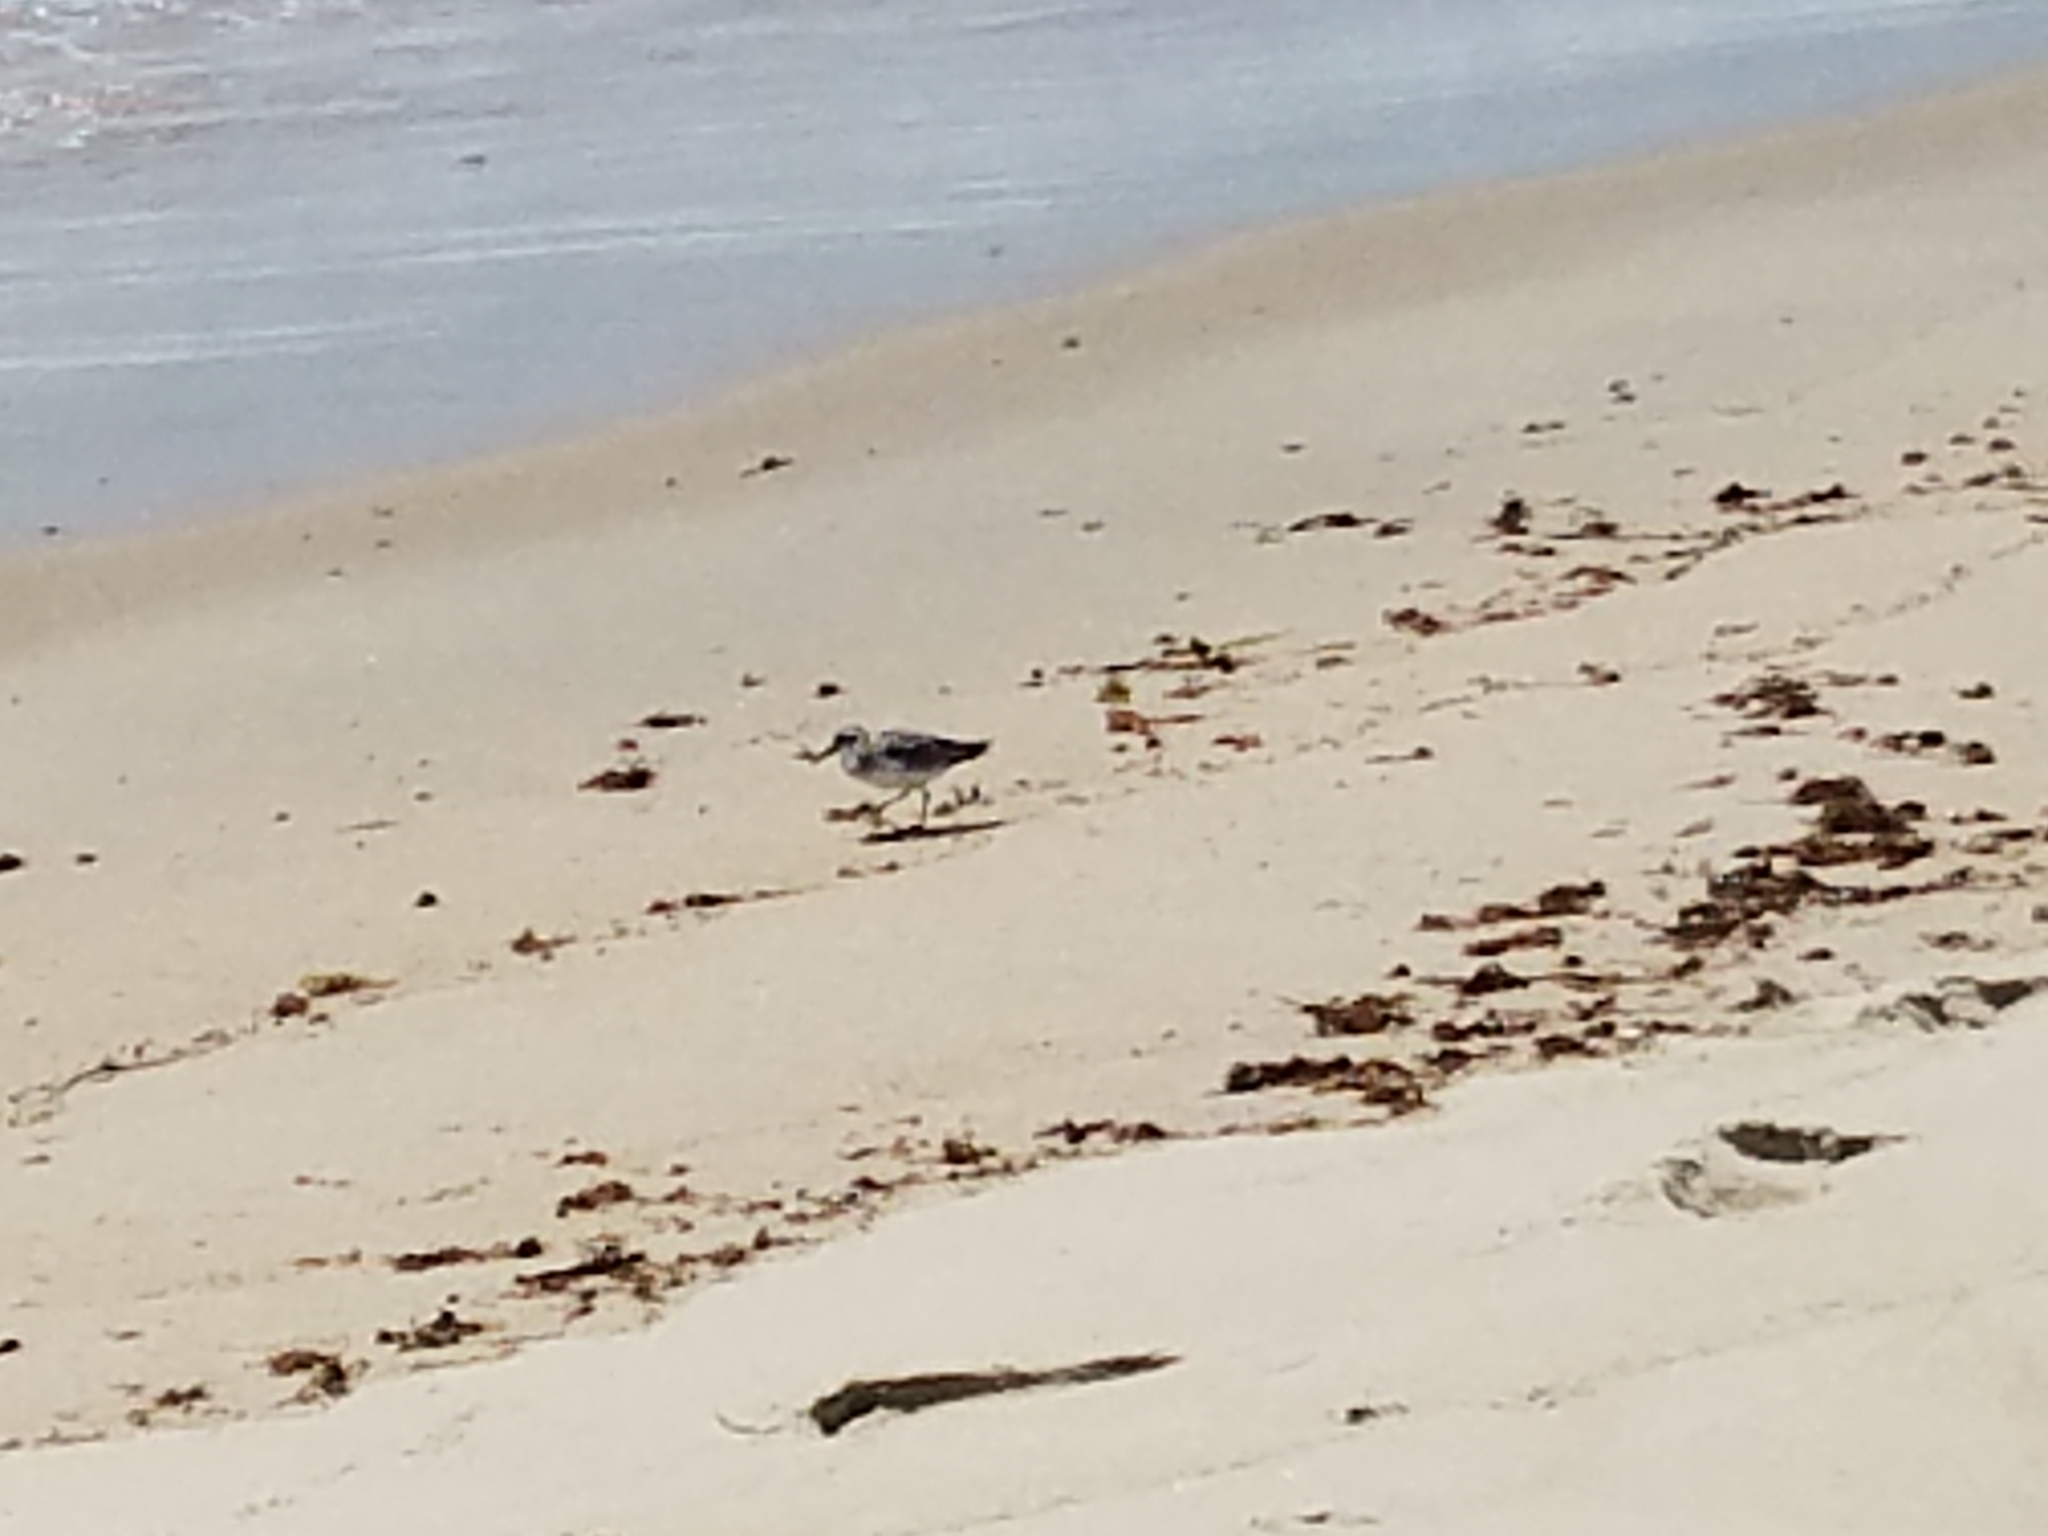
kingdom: Animalia
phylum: Chordata
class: Aves
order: Charadriiformes
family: Scolopacidae
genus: Calidris
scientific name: Calidris alba
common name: Sanderling
